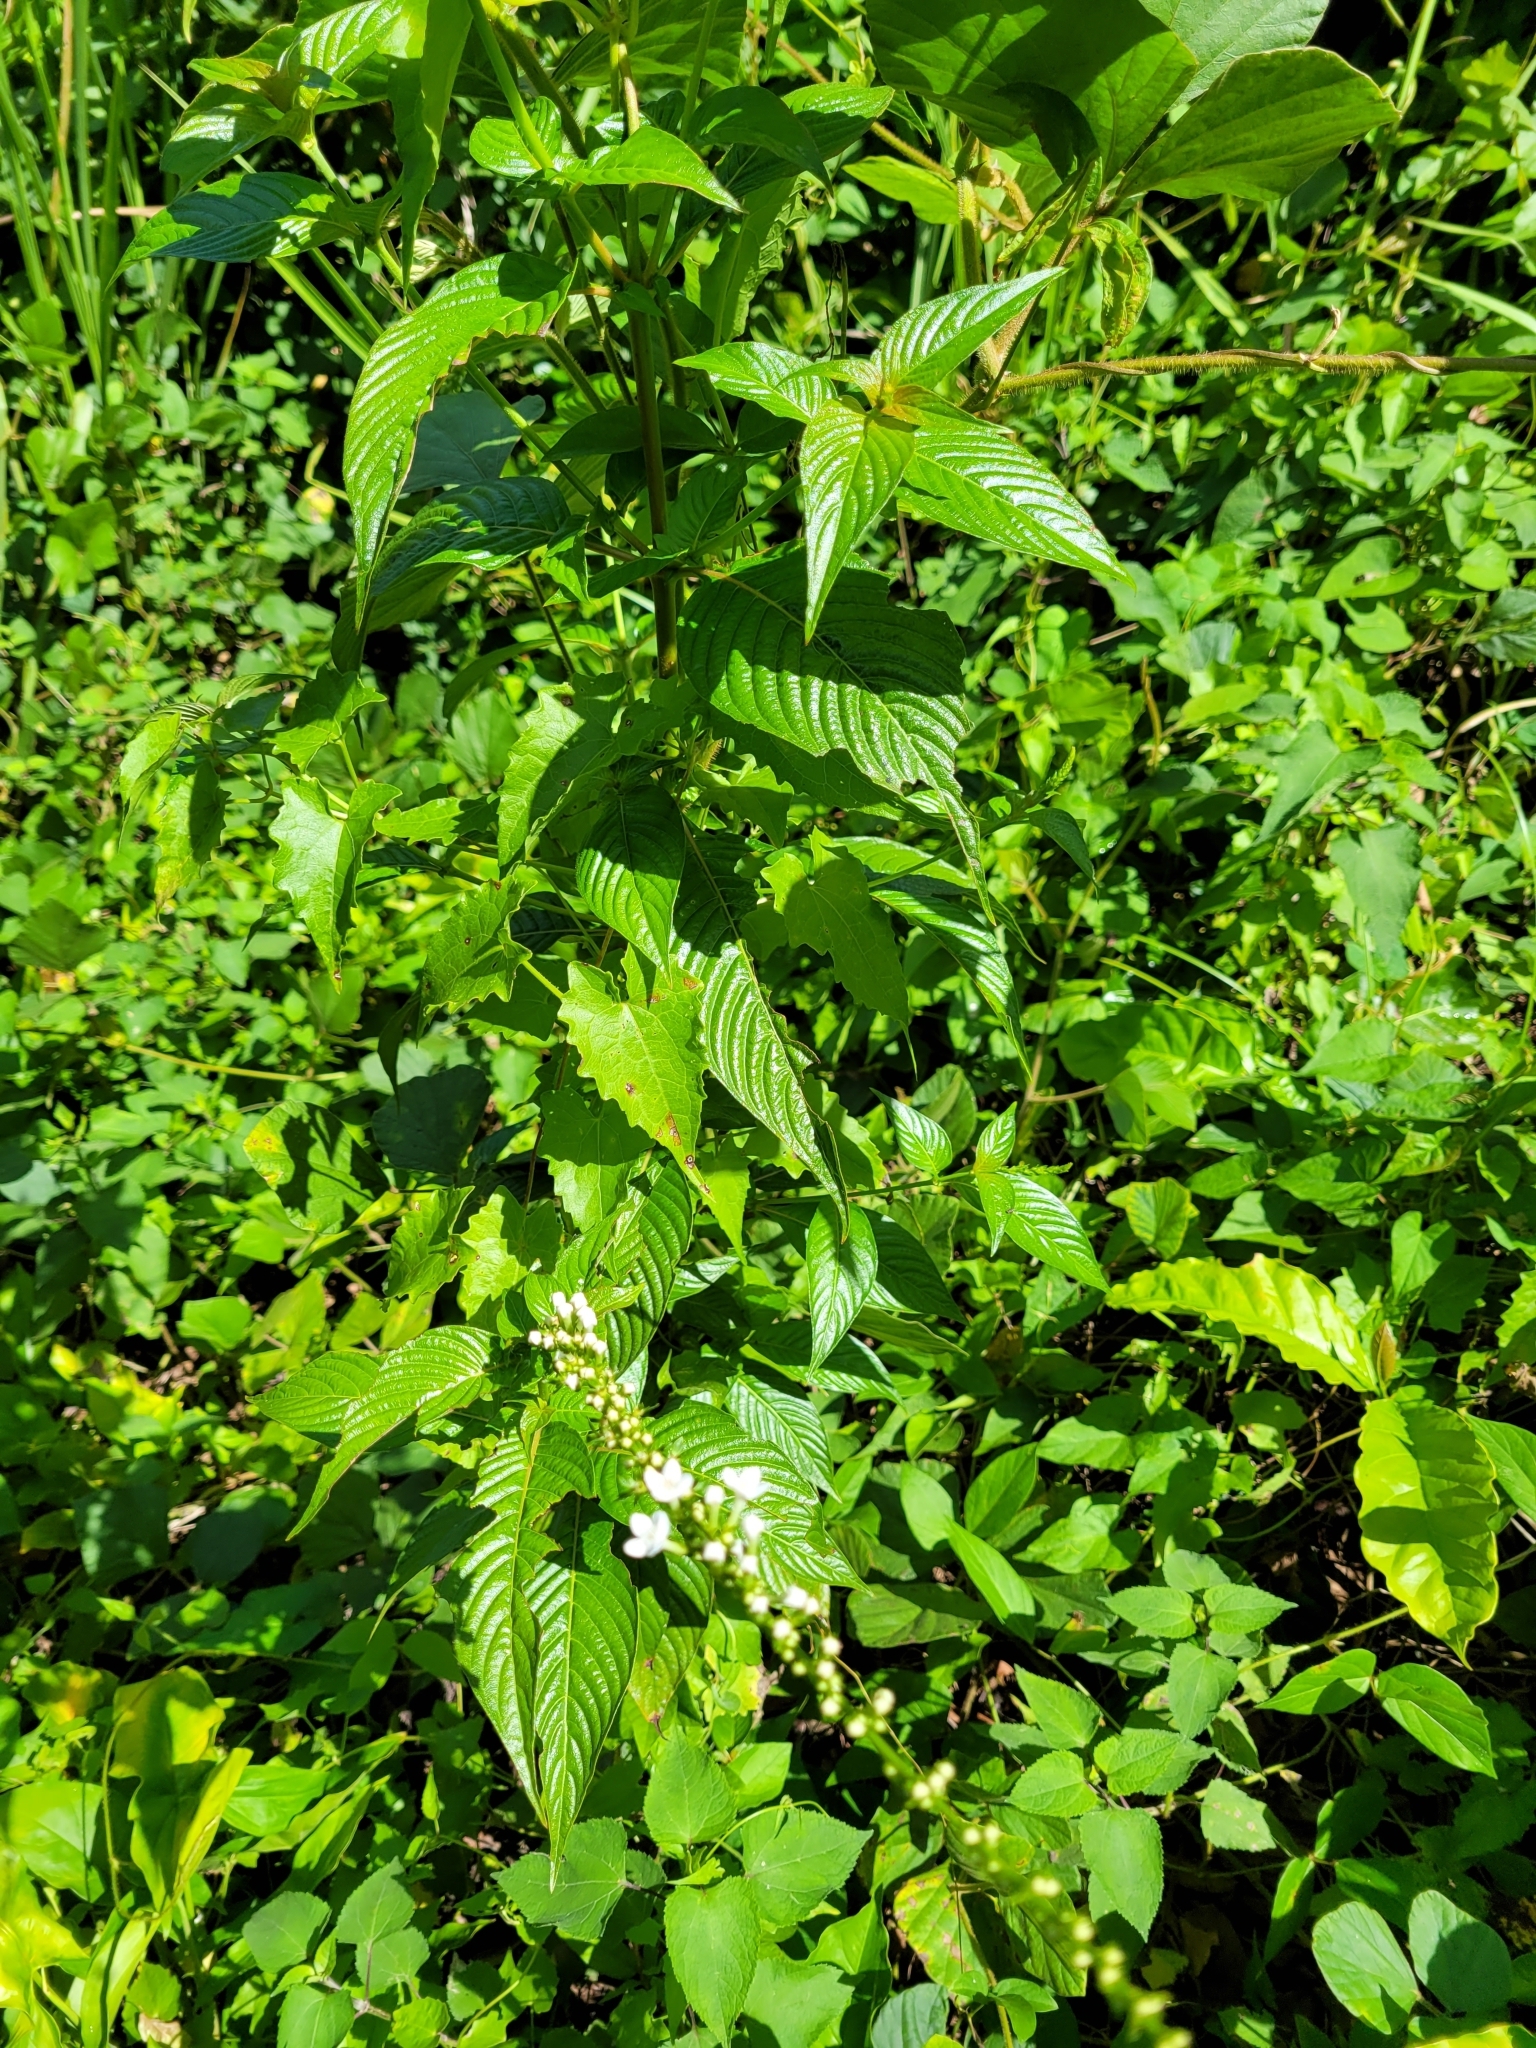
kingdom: Plantae
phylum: Tracheophyta
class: Magnoliopsida
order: Gentianales
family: Rubiaceae
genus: Gonzalagunia
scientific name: Gonzalagunia hirsuta
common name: Mata de mariposa
